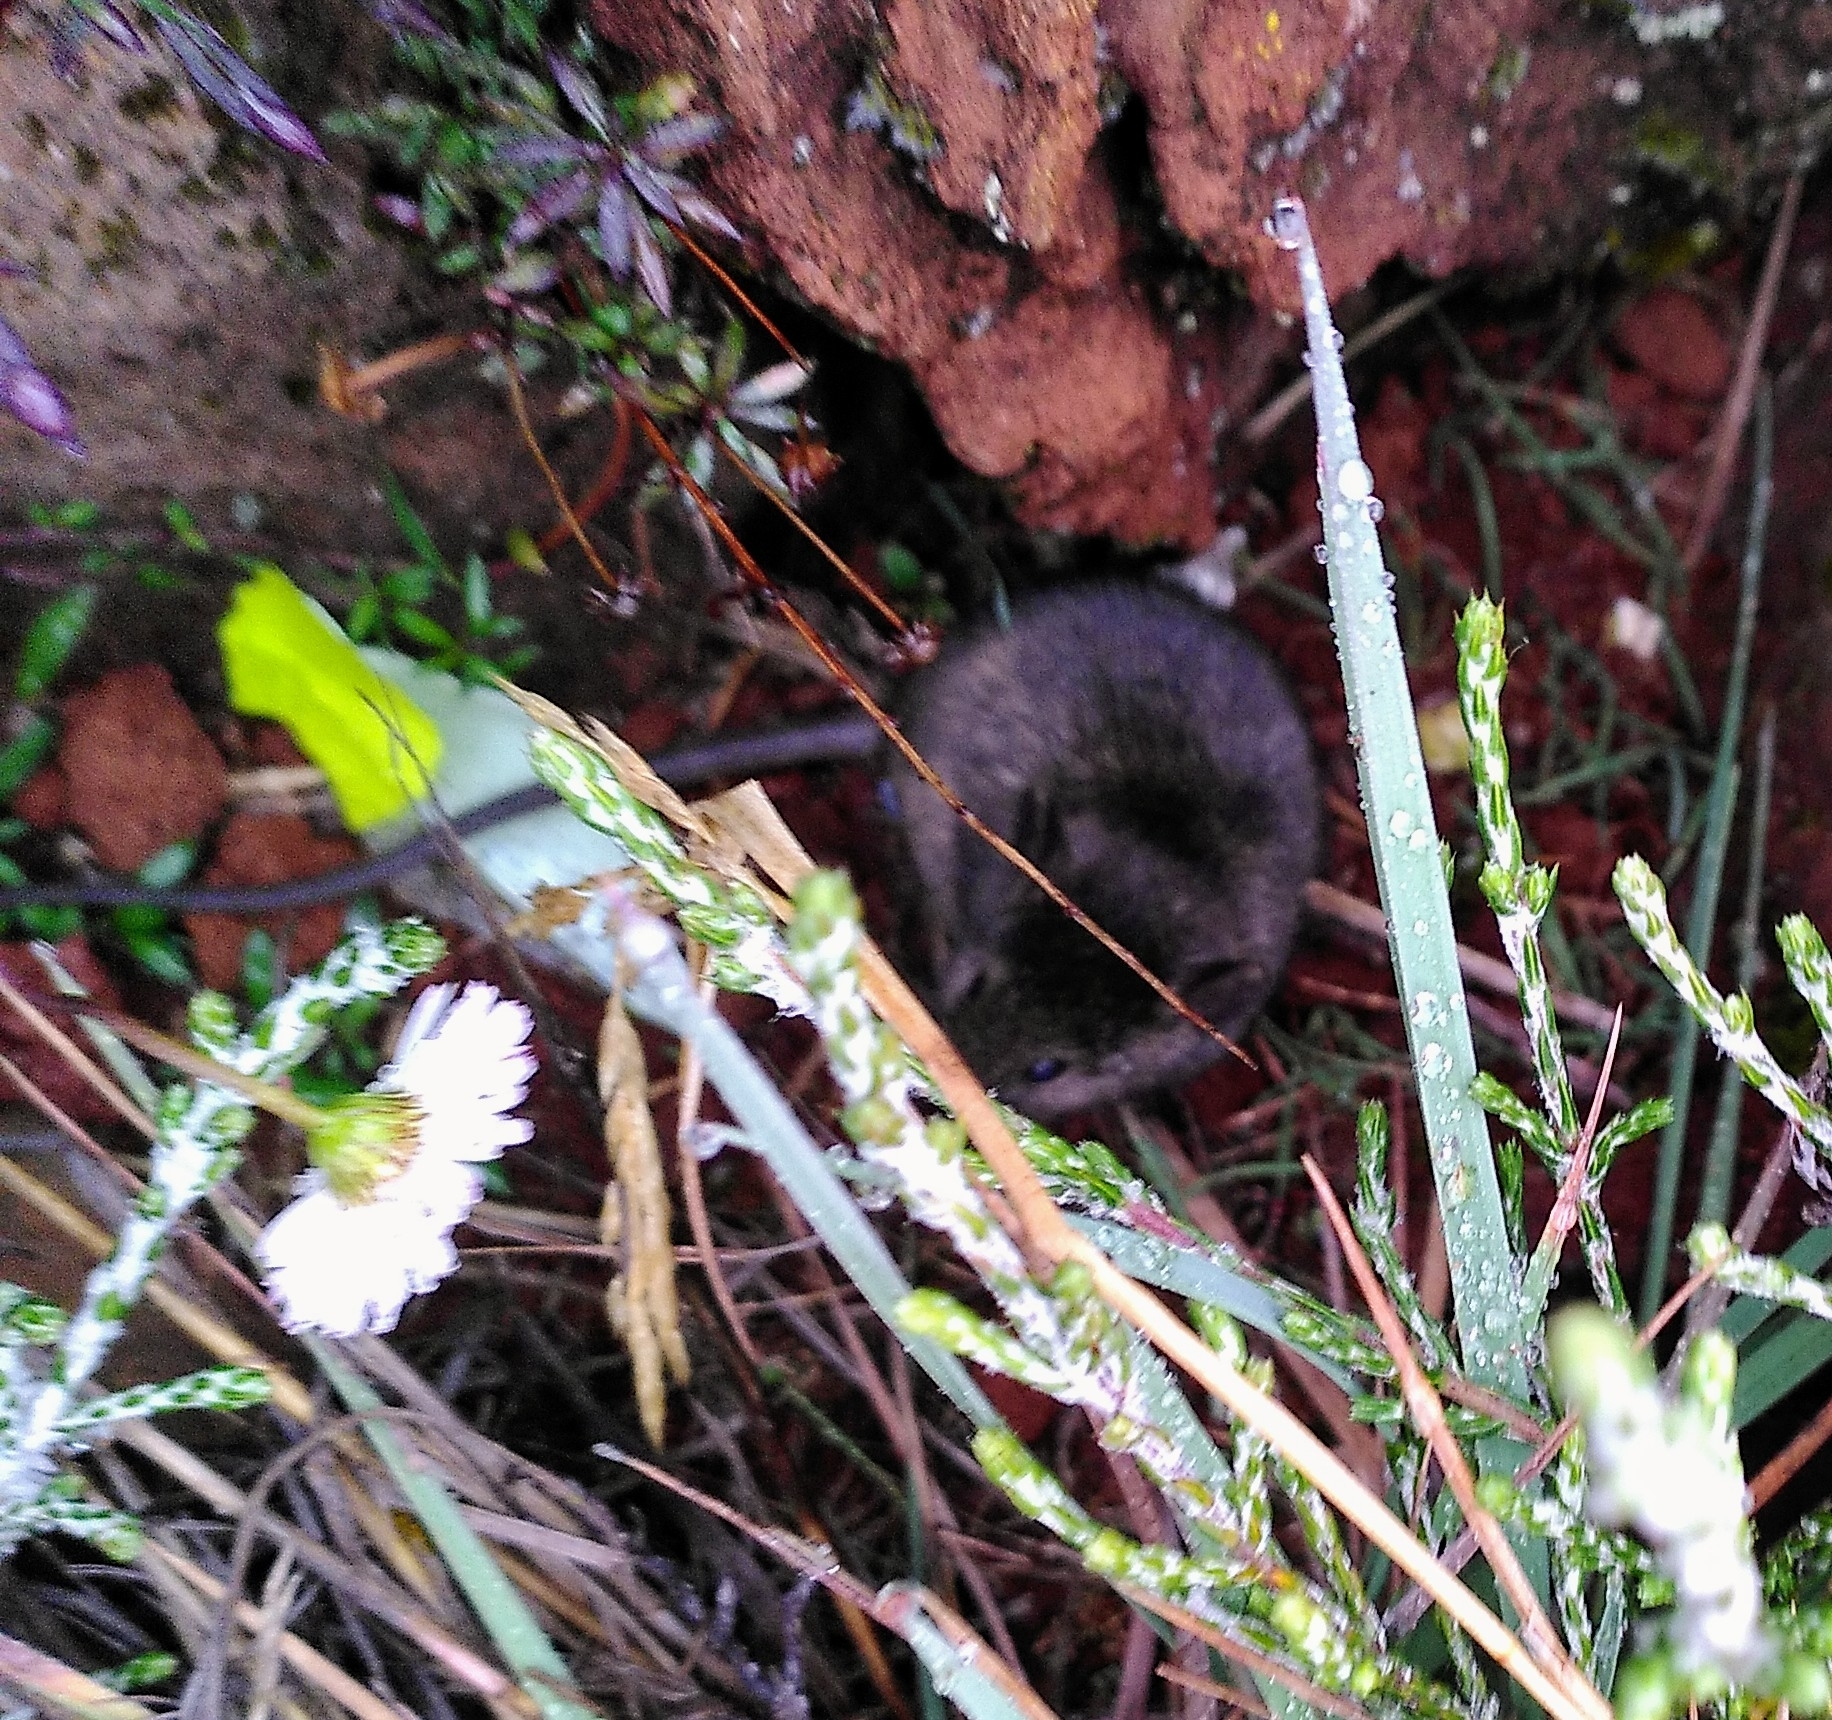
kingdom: Animalia
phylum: Chordata
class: Mammalia
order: Rodentia
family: Muridae
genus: Mus
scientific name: Mus musculus
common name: House mouse
